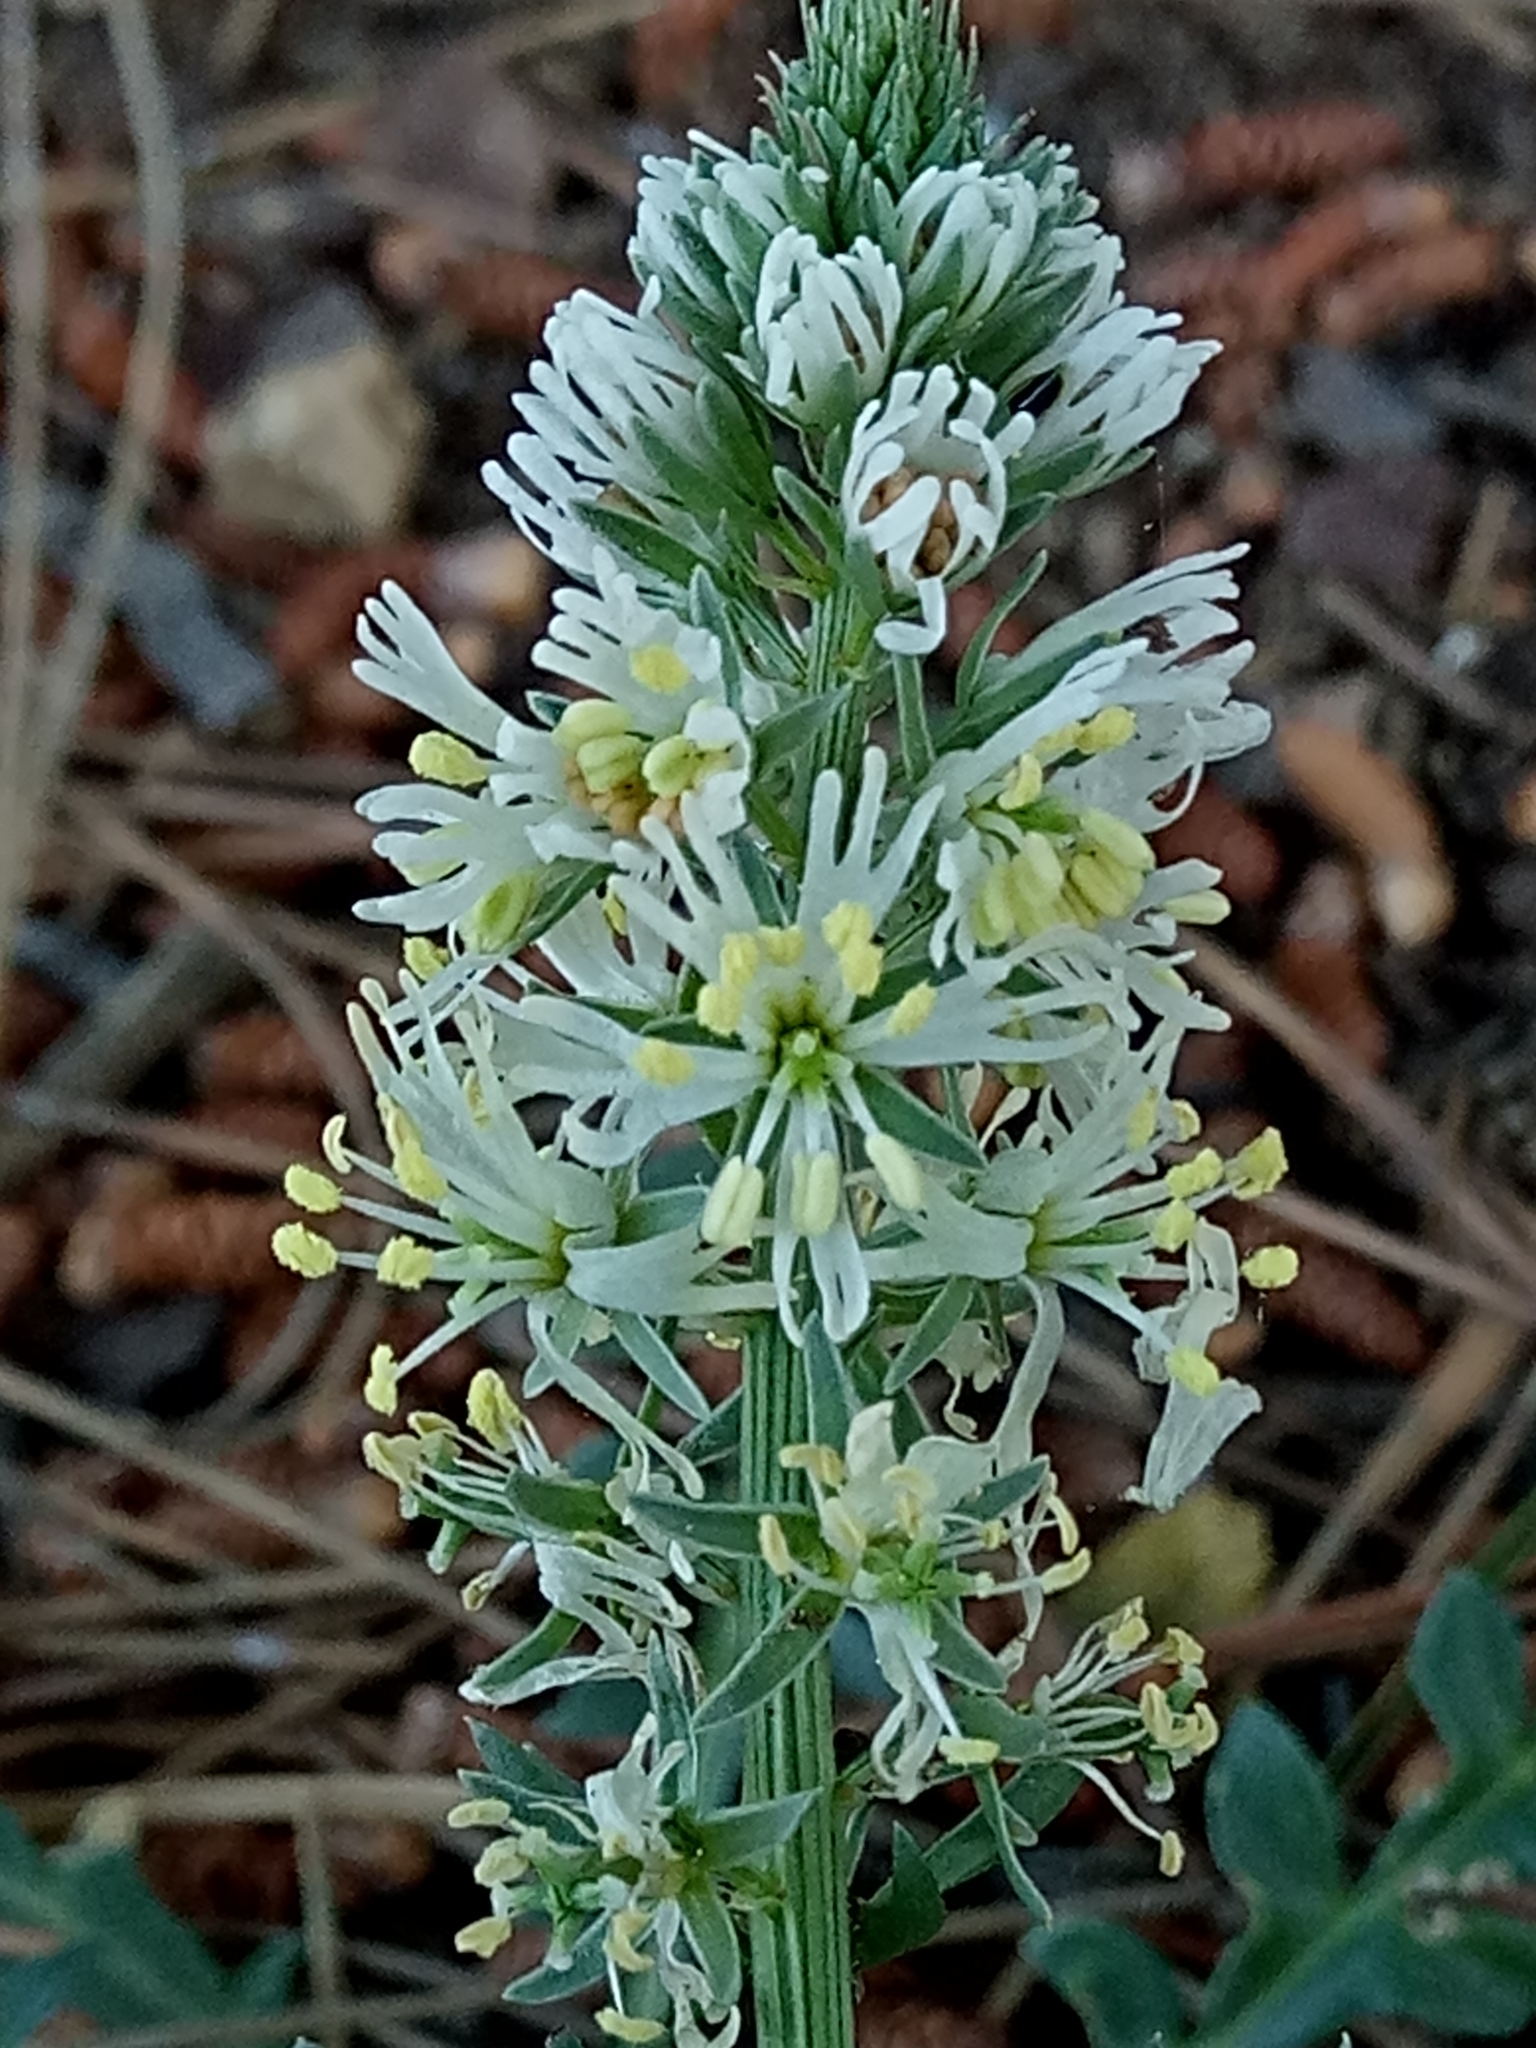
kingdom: Plantae
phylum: Tracheophyta
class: Magnoliopsida
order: Brassicales
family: Resedaceae
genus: Reseda
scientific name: Reseda alba
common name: White mignonette
